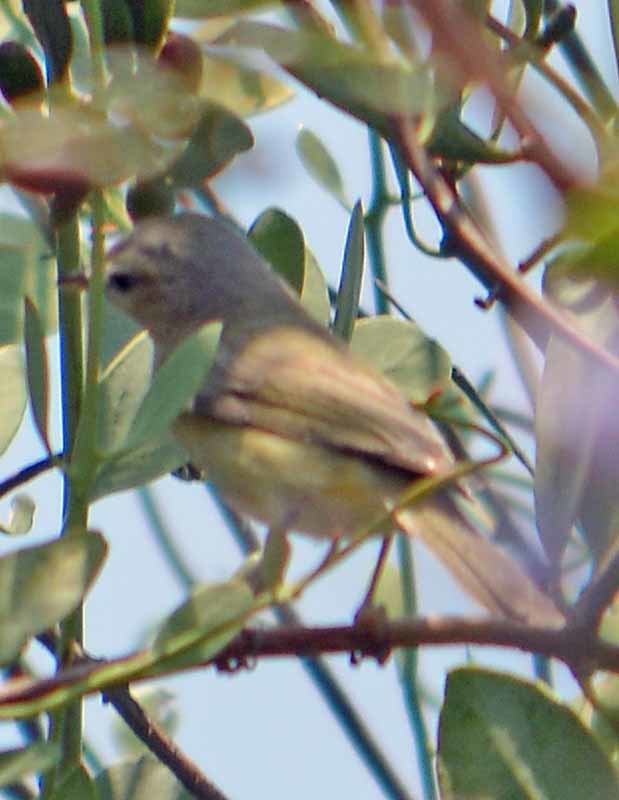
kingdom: Animalia
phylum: Chordata
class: Aves
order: Passeriformes
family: Vireonidae
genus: Vireo
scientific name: Vireo gilvus
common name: Warbling vireo
